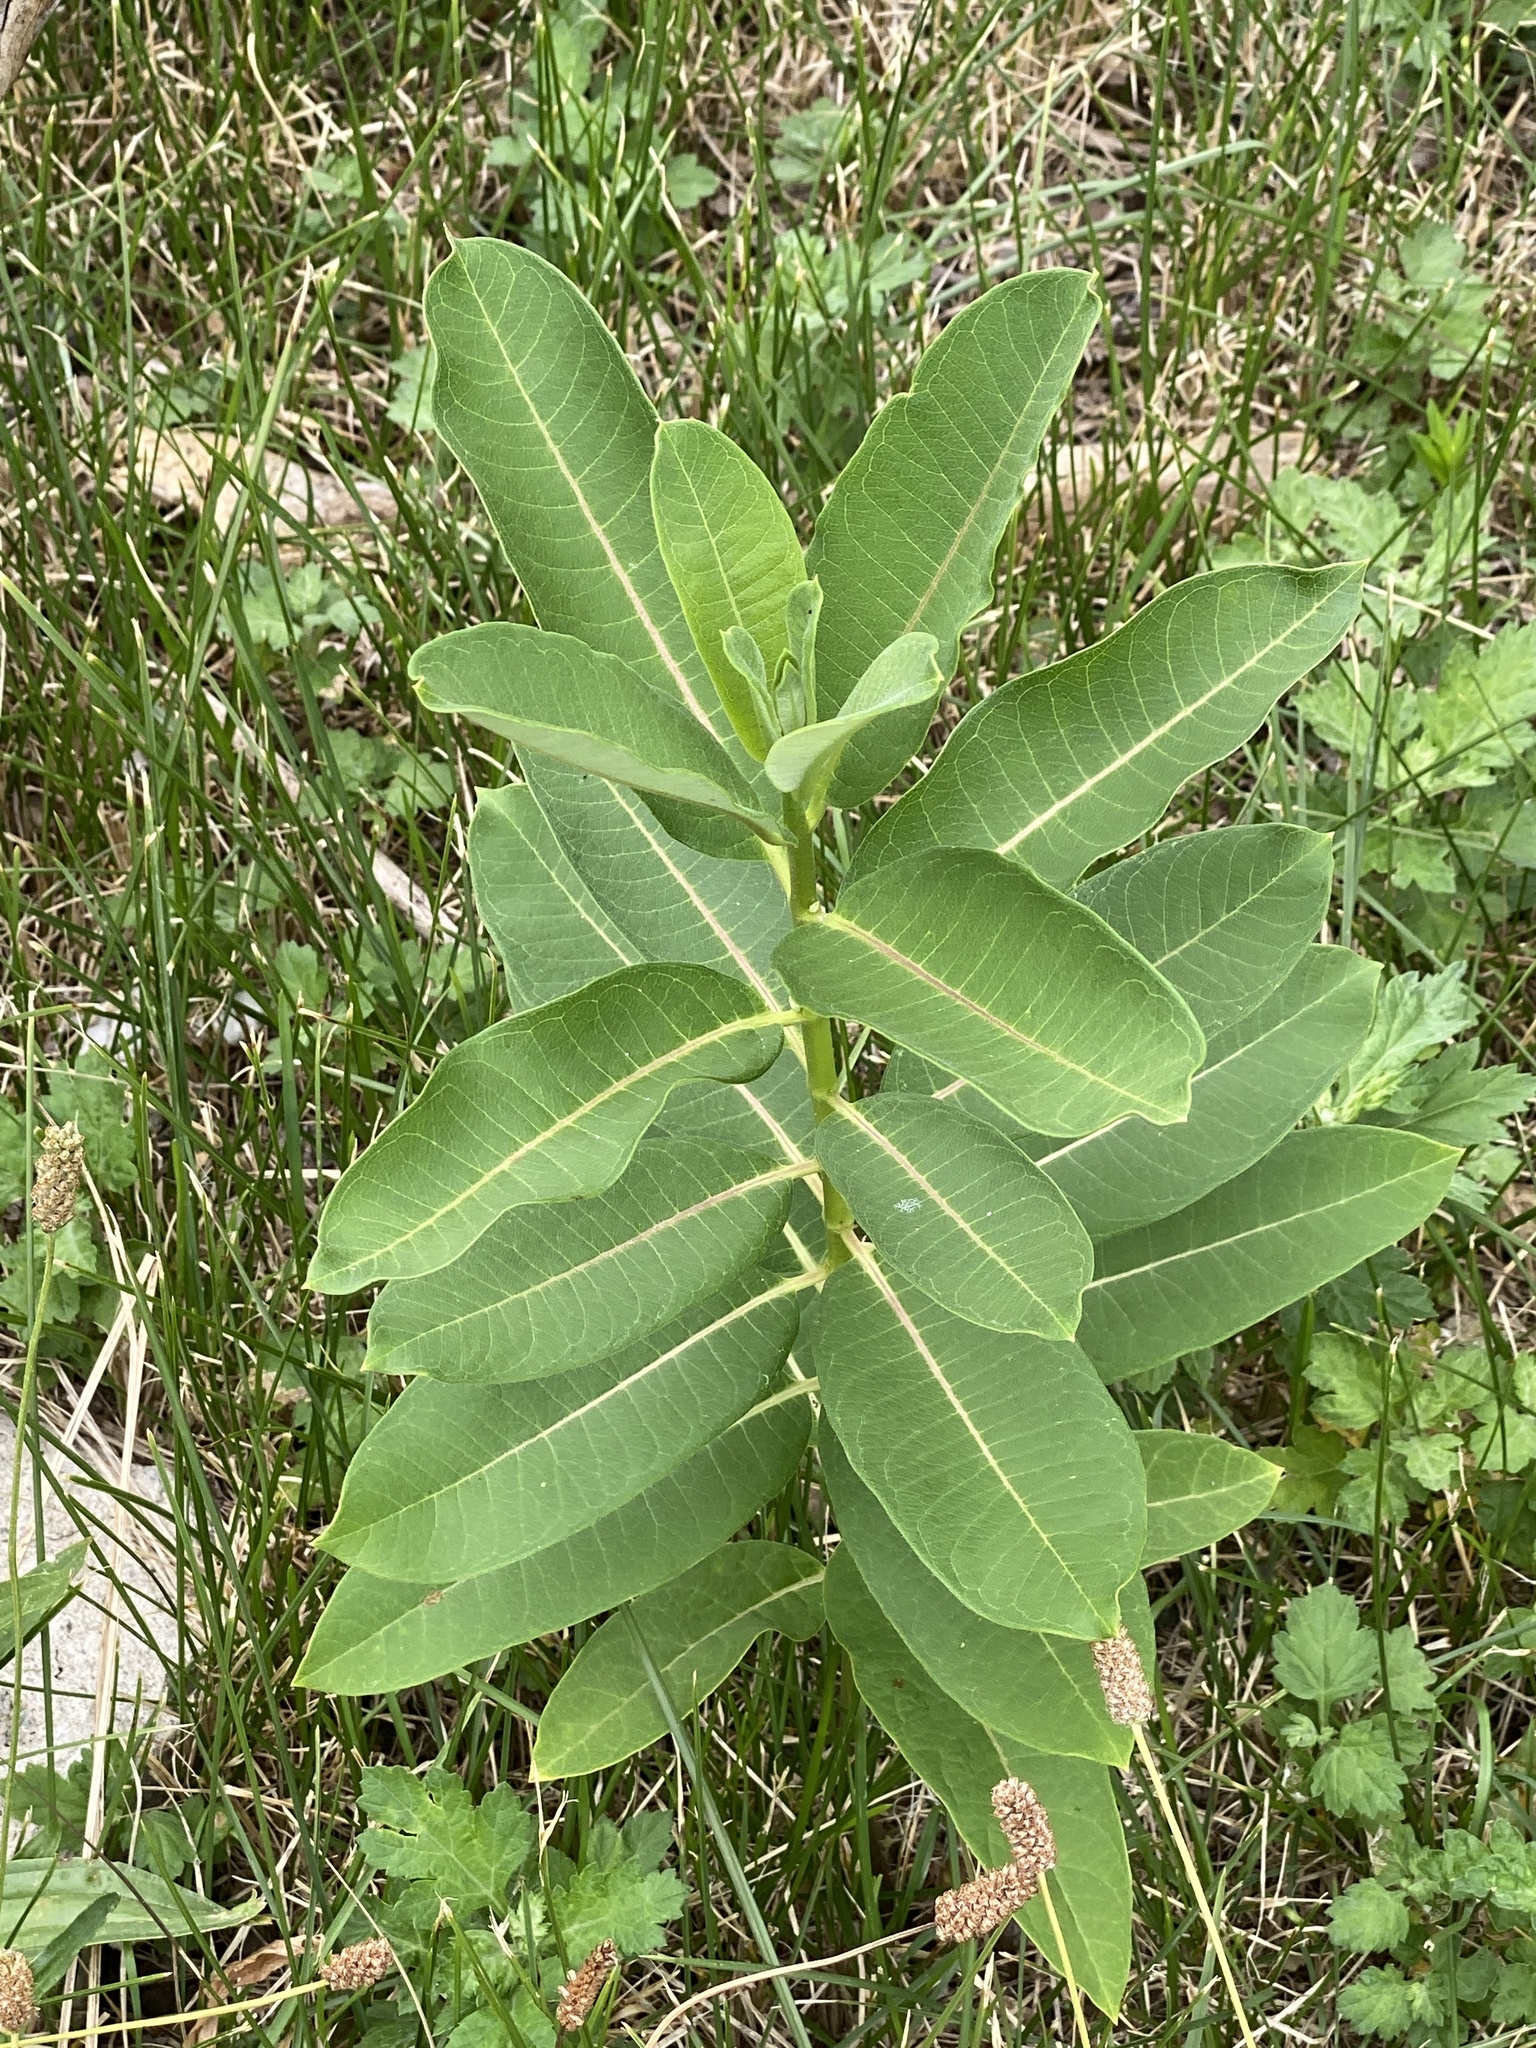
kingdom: Plantae
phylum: Tracheophyta
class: Magnoliopsida
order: Gentianales
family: Apocynaceae
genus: Asclepias
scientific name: Asclepias syriaca
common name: Common milkweed
